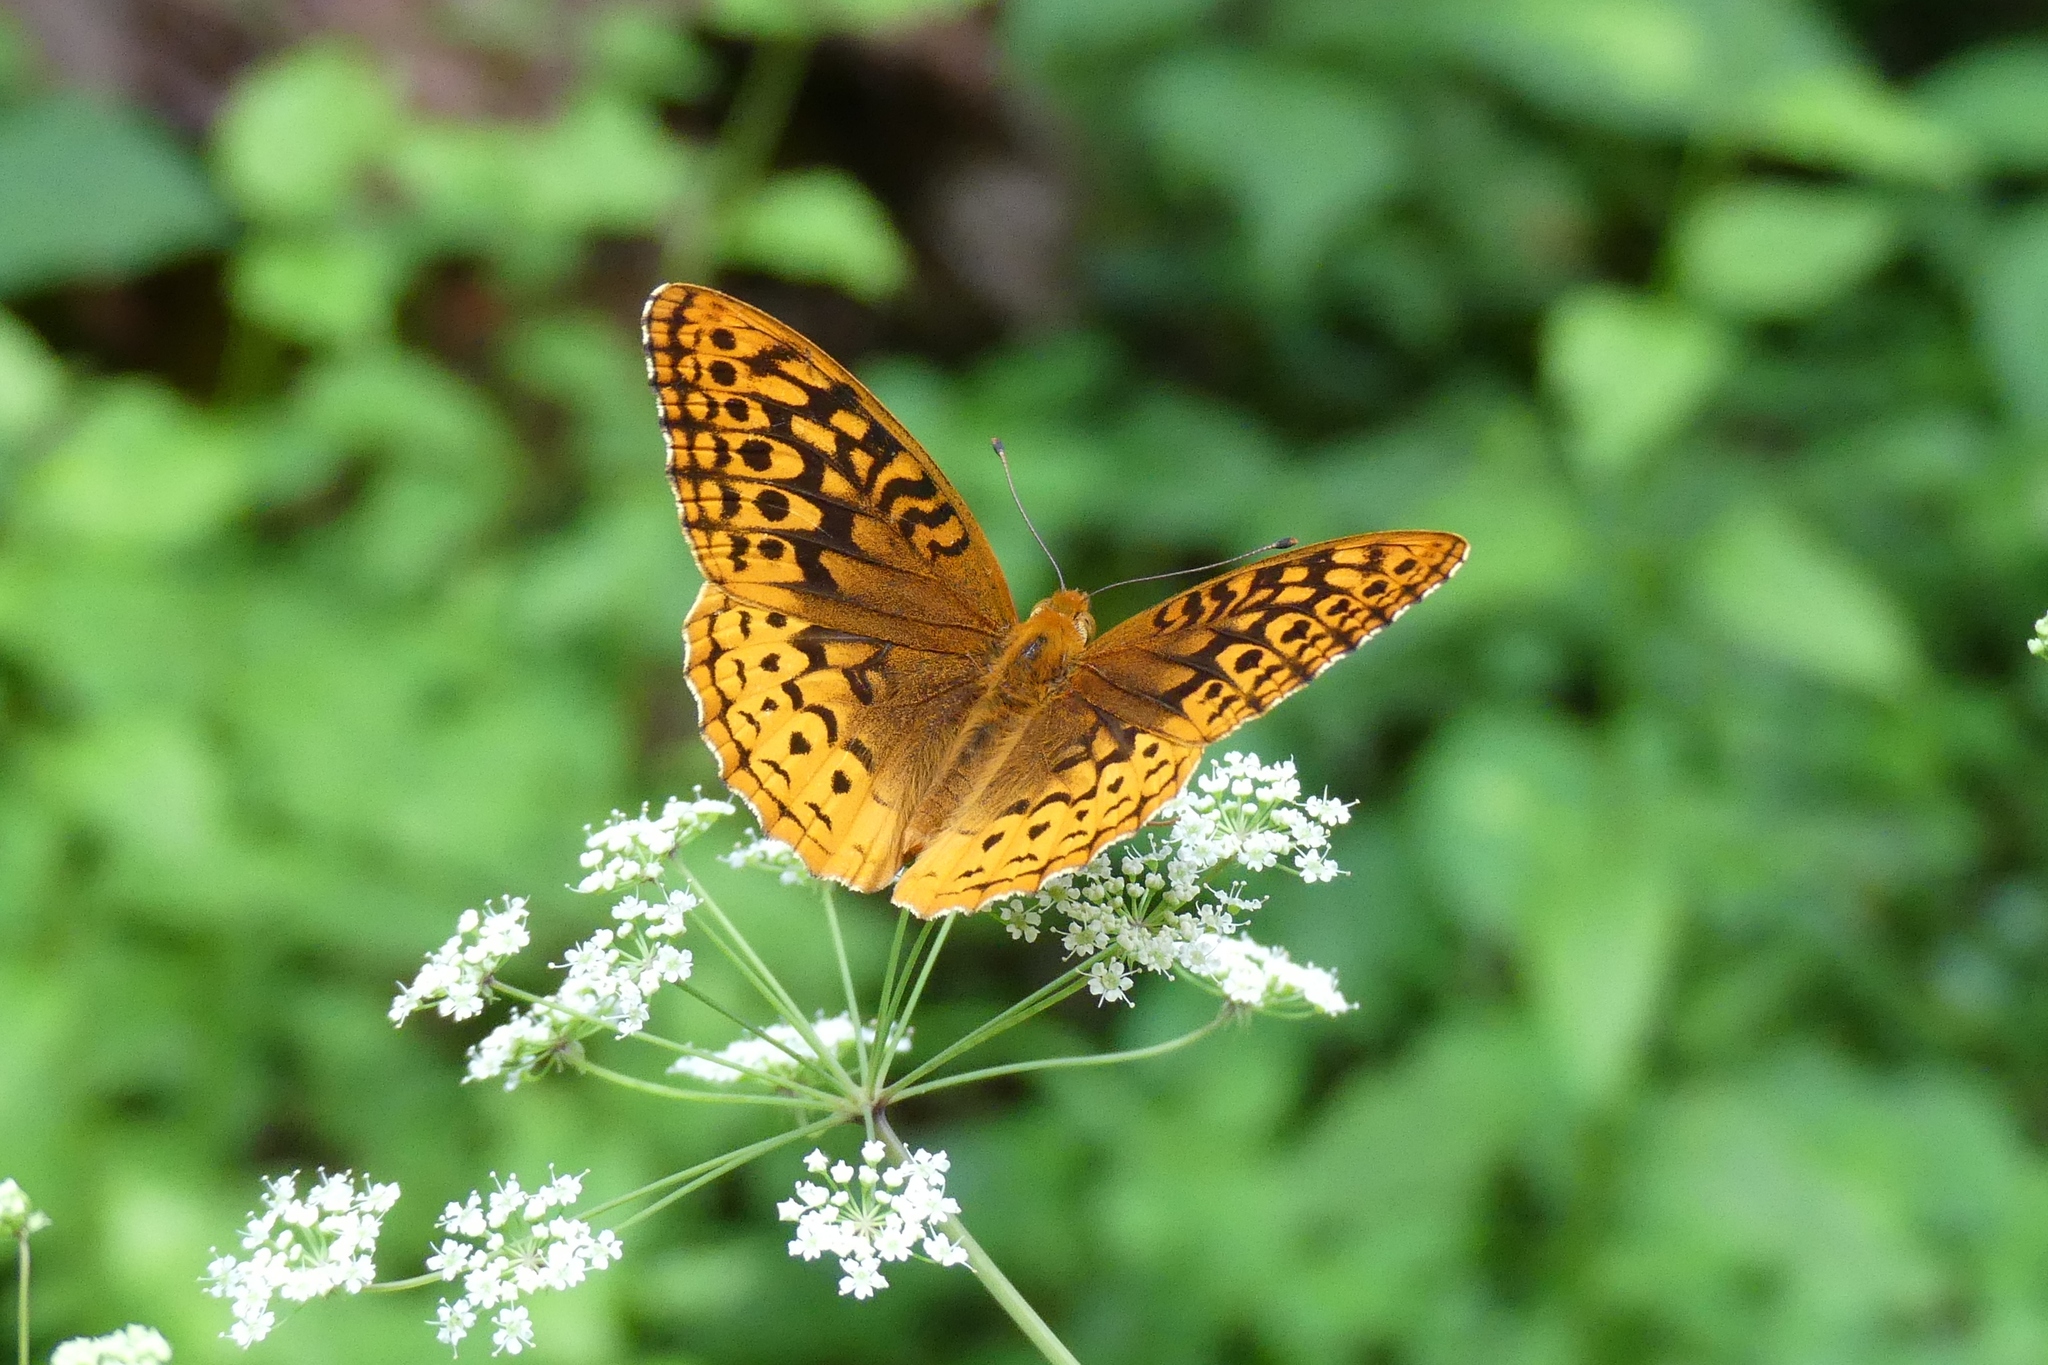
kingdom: Animalia
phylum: Arthropoda
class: Insecta
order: Lepidoptera
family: Nymphalidae
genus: Speyeria
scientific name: Speyeria cybele
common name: Great spangled fritillary
